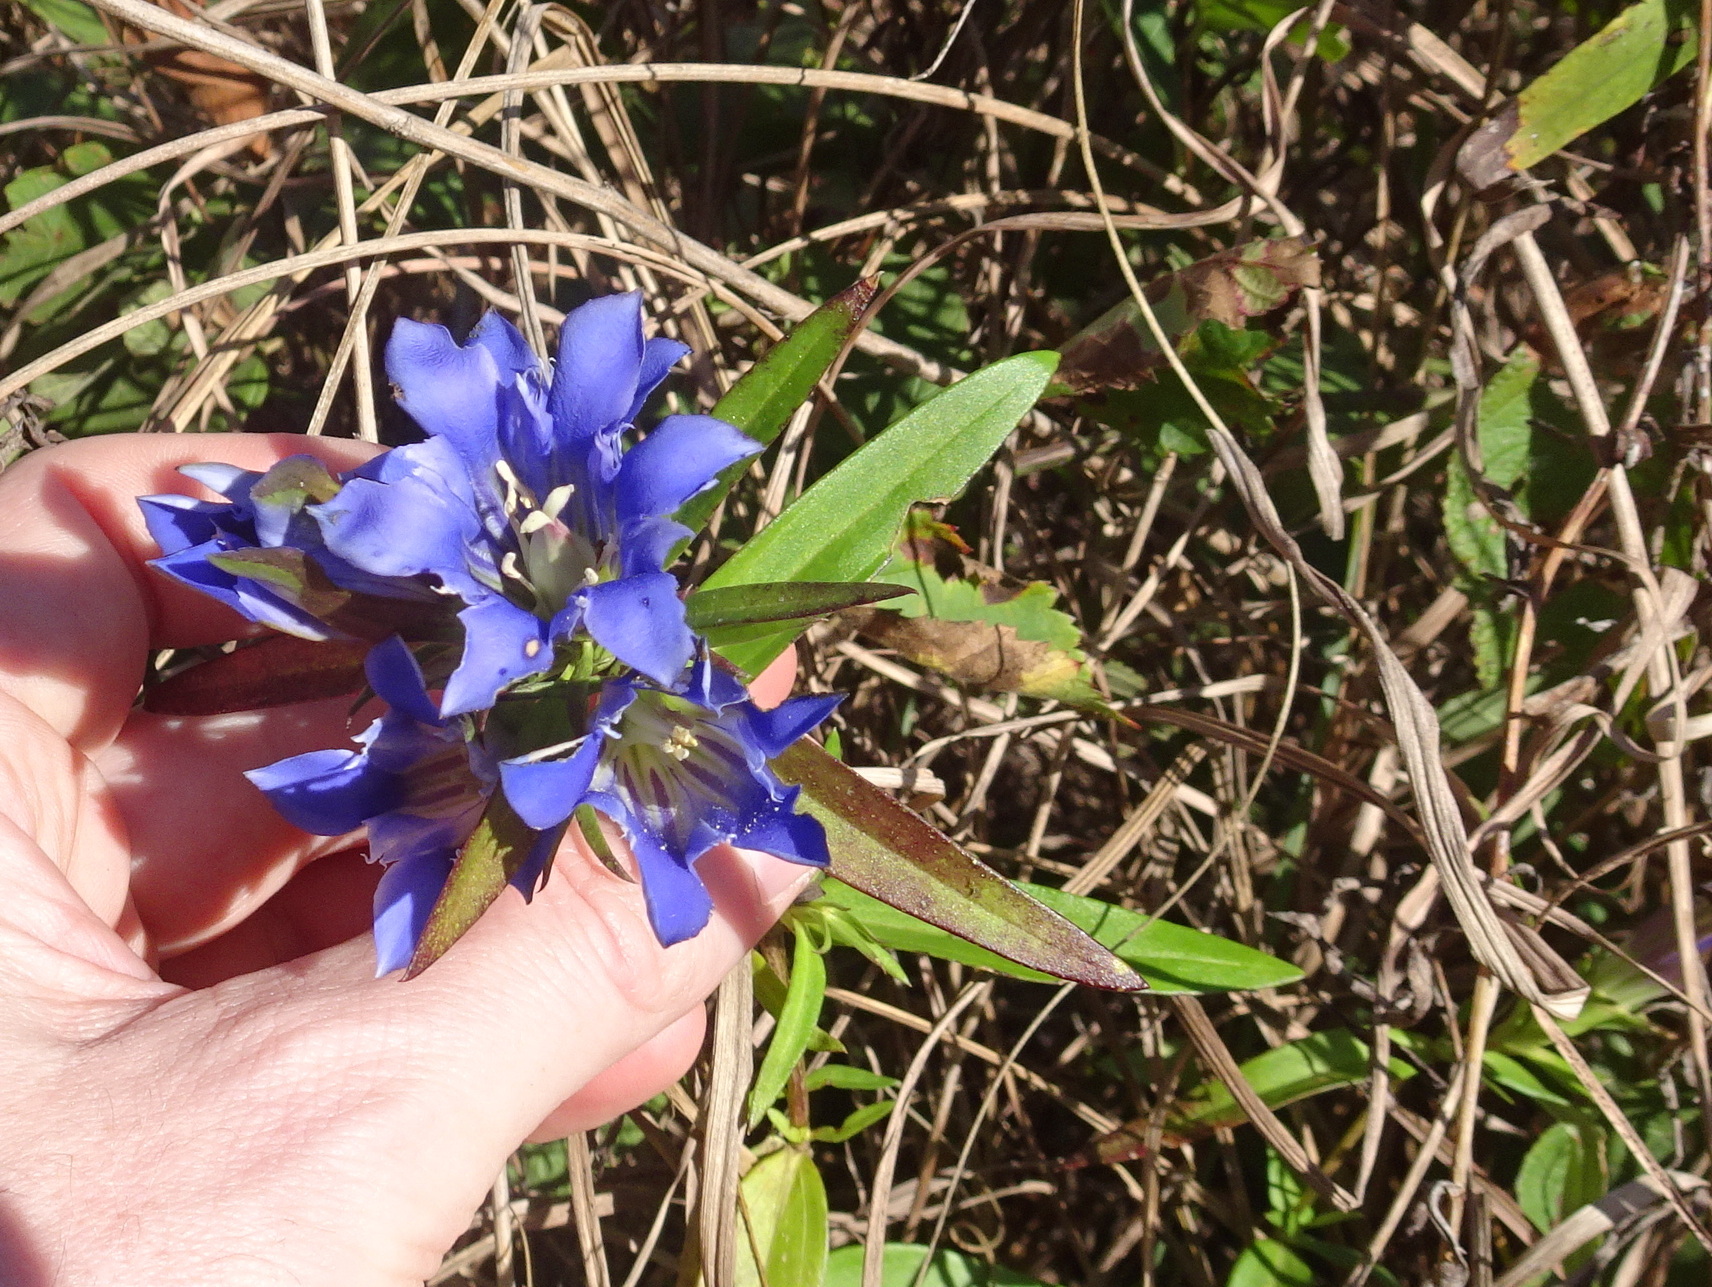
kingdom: Plantae
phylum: Tracheophyta
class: Magnoliopsida
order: Gentianales
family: Gentianaceae
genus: Gentiana
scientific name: Gentiana puberulenta
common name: Downy gentian
